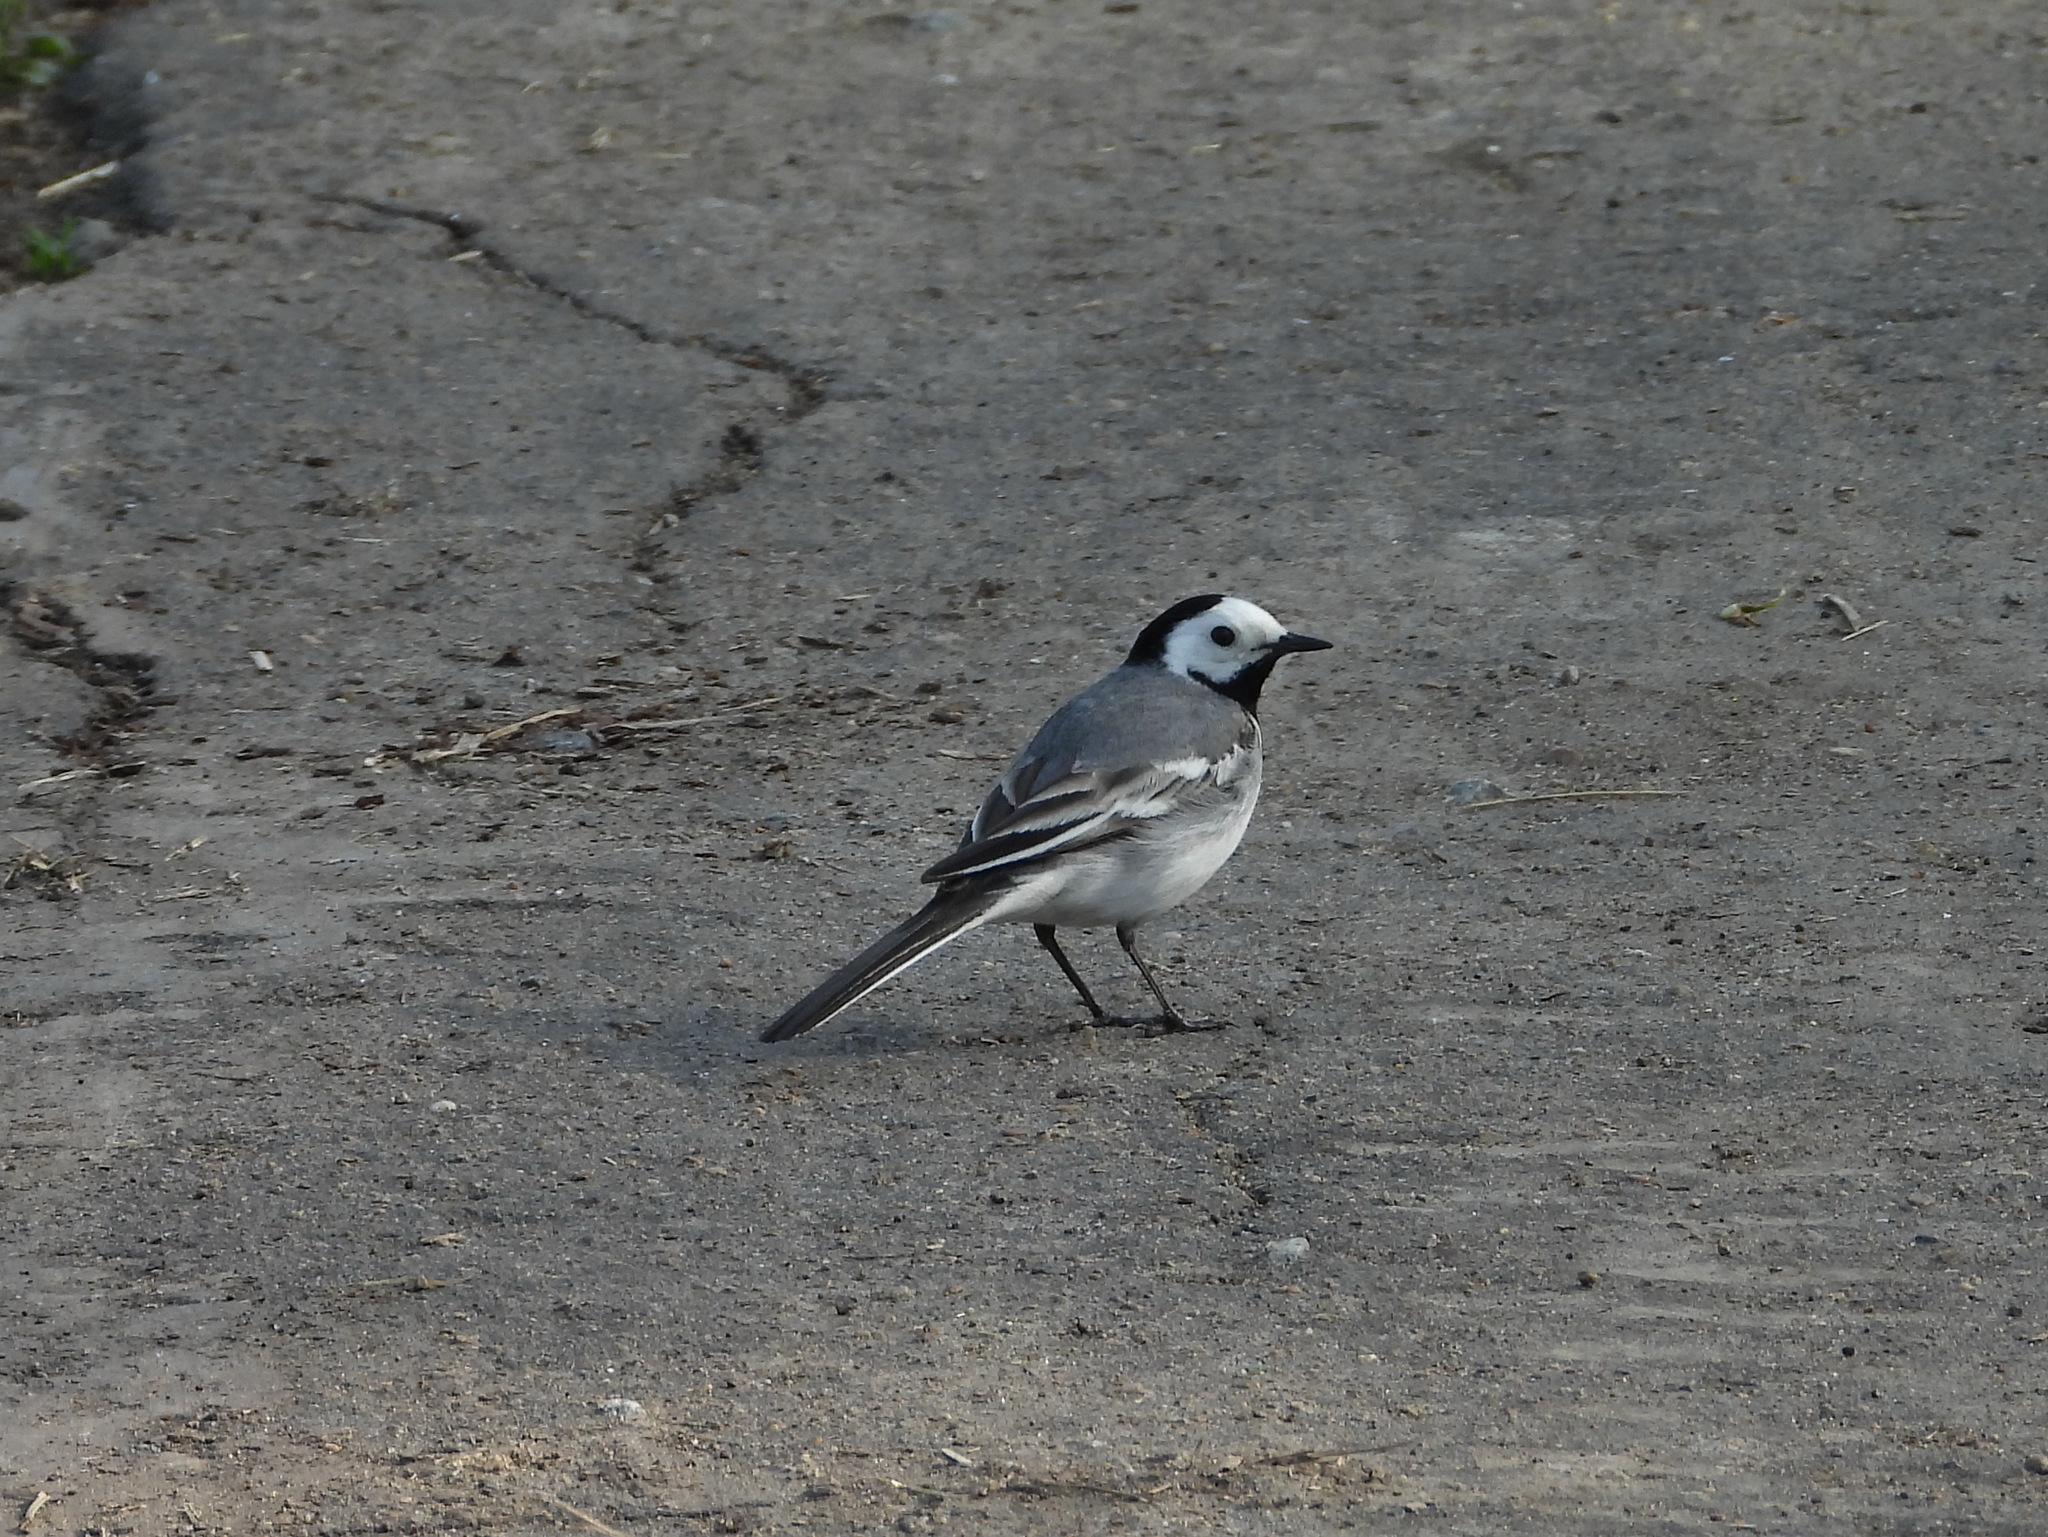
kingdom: Animalia
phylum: Chordata
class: Aves
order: Passeriformes
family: Motacillidae
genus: Motacilla
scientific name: Motacilla alba
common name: White wagtail
